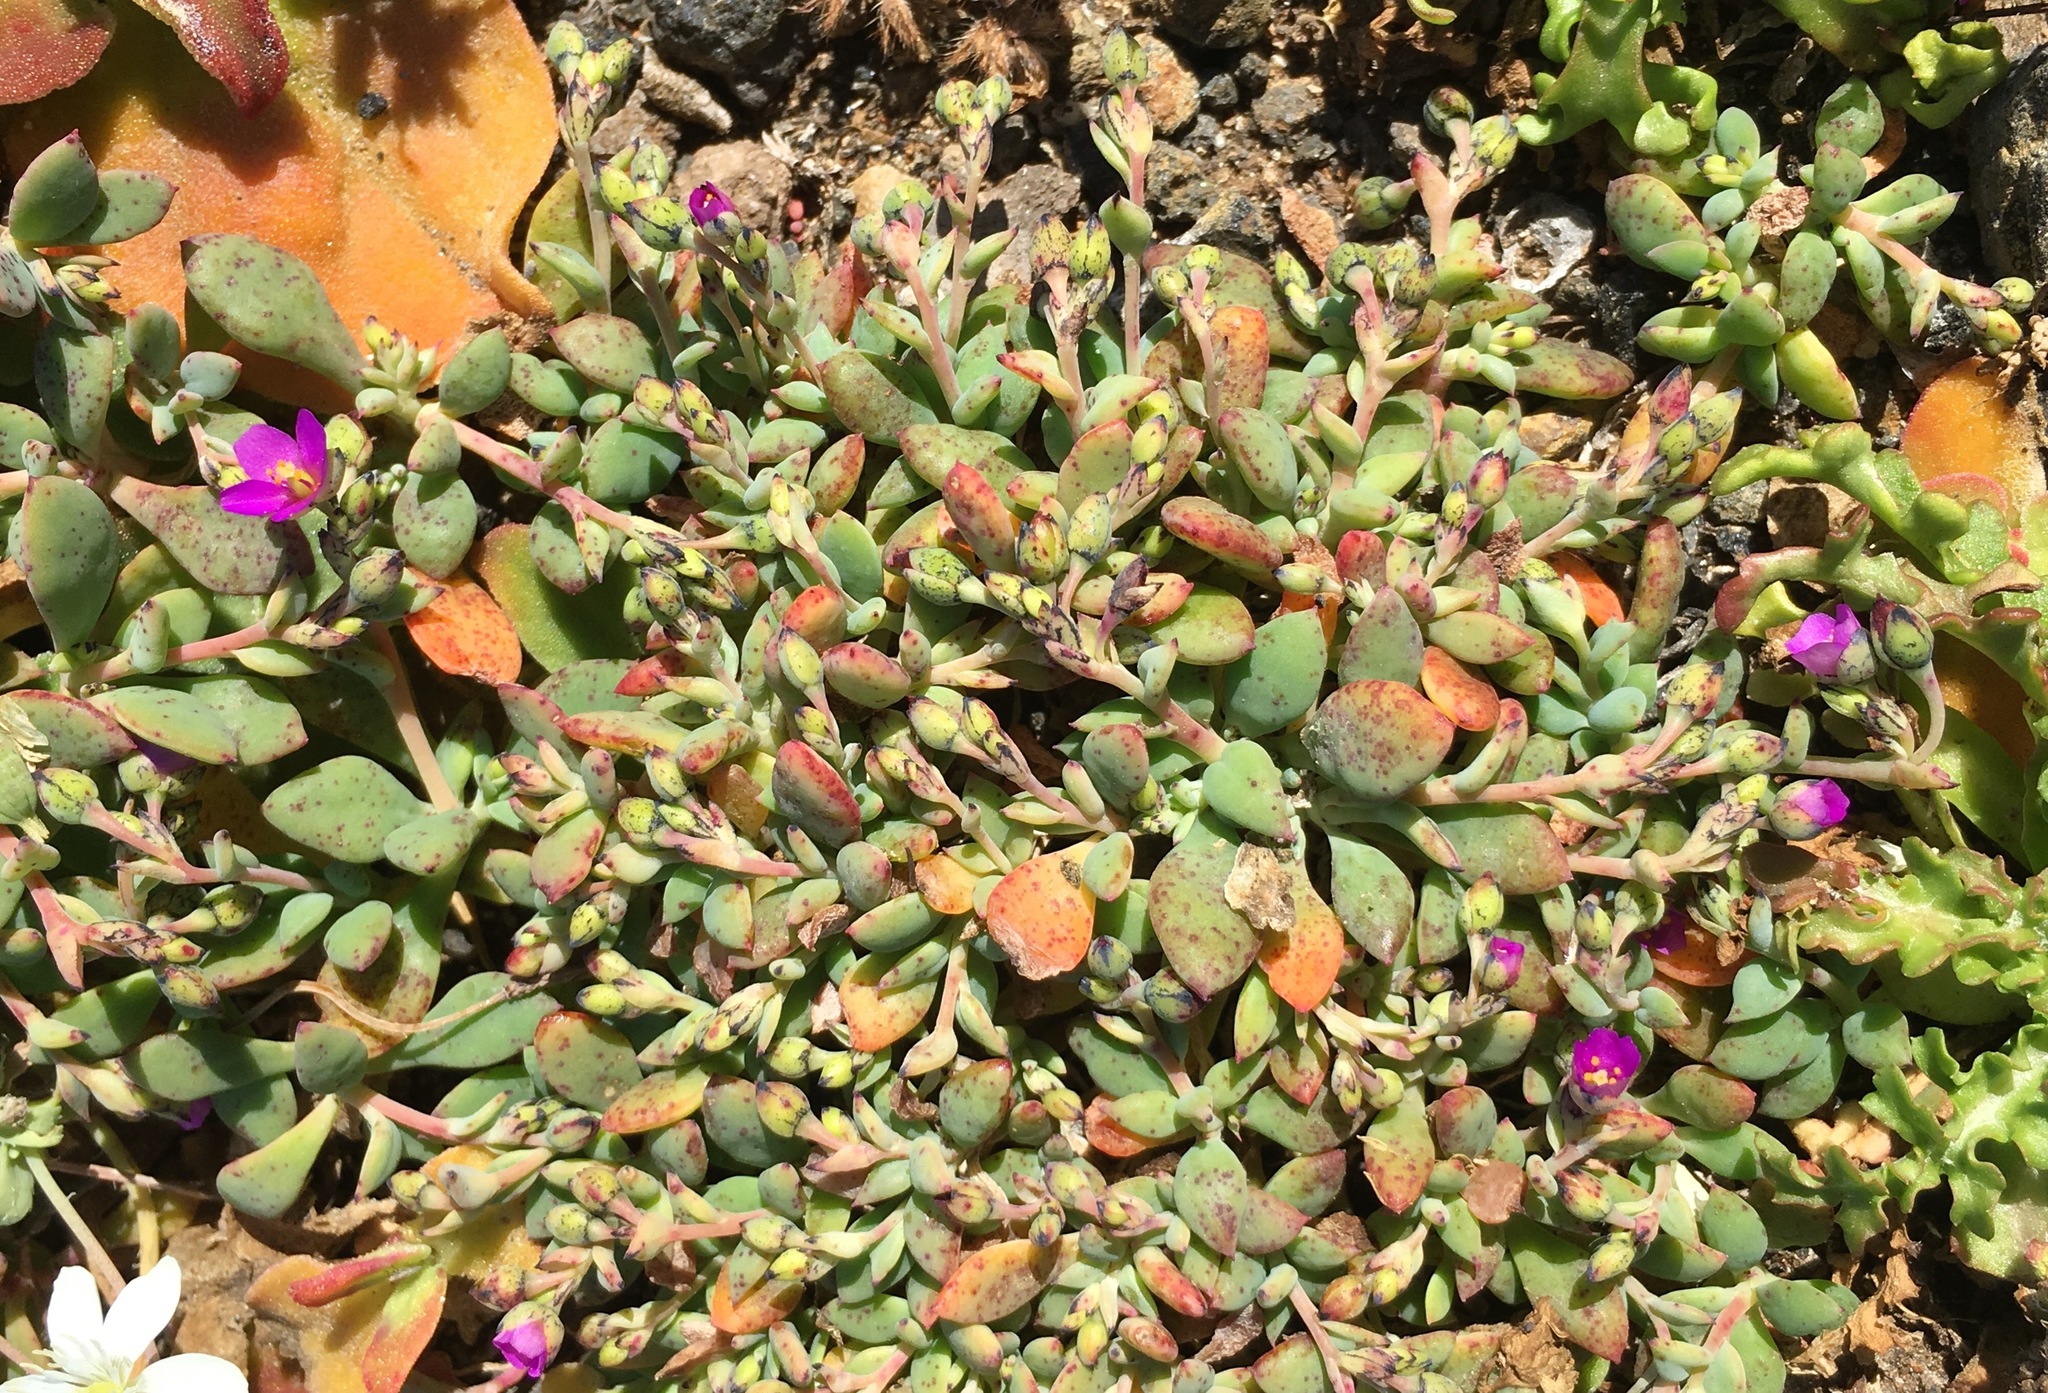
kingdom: Plantae
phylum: Tracheophyta
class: Magnoliopsida
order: Caryophyllales
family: Montiaceae
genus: Cistanthe
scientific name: Cistanthe maritima
